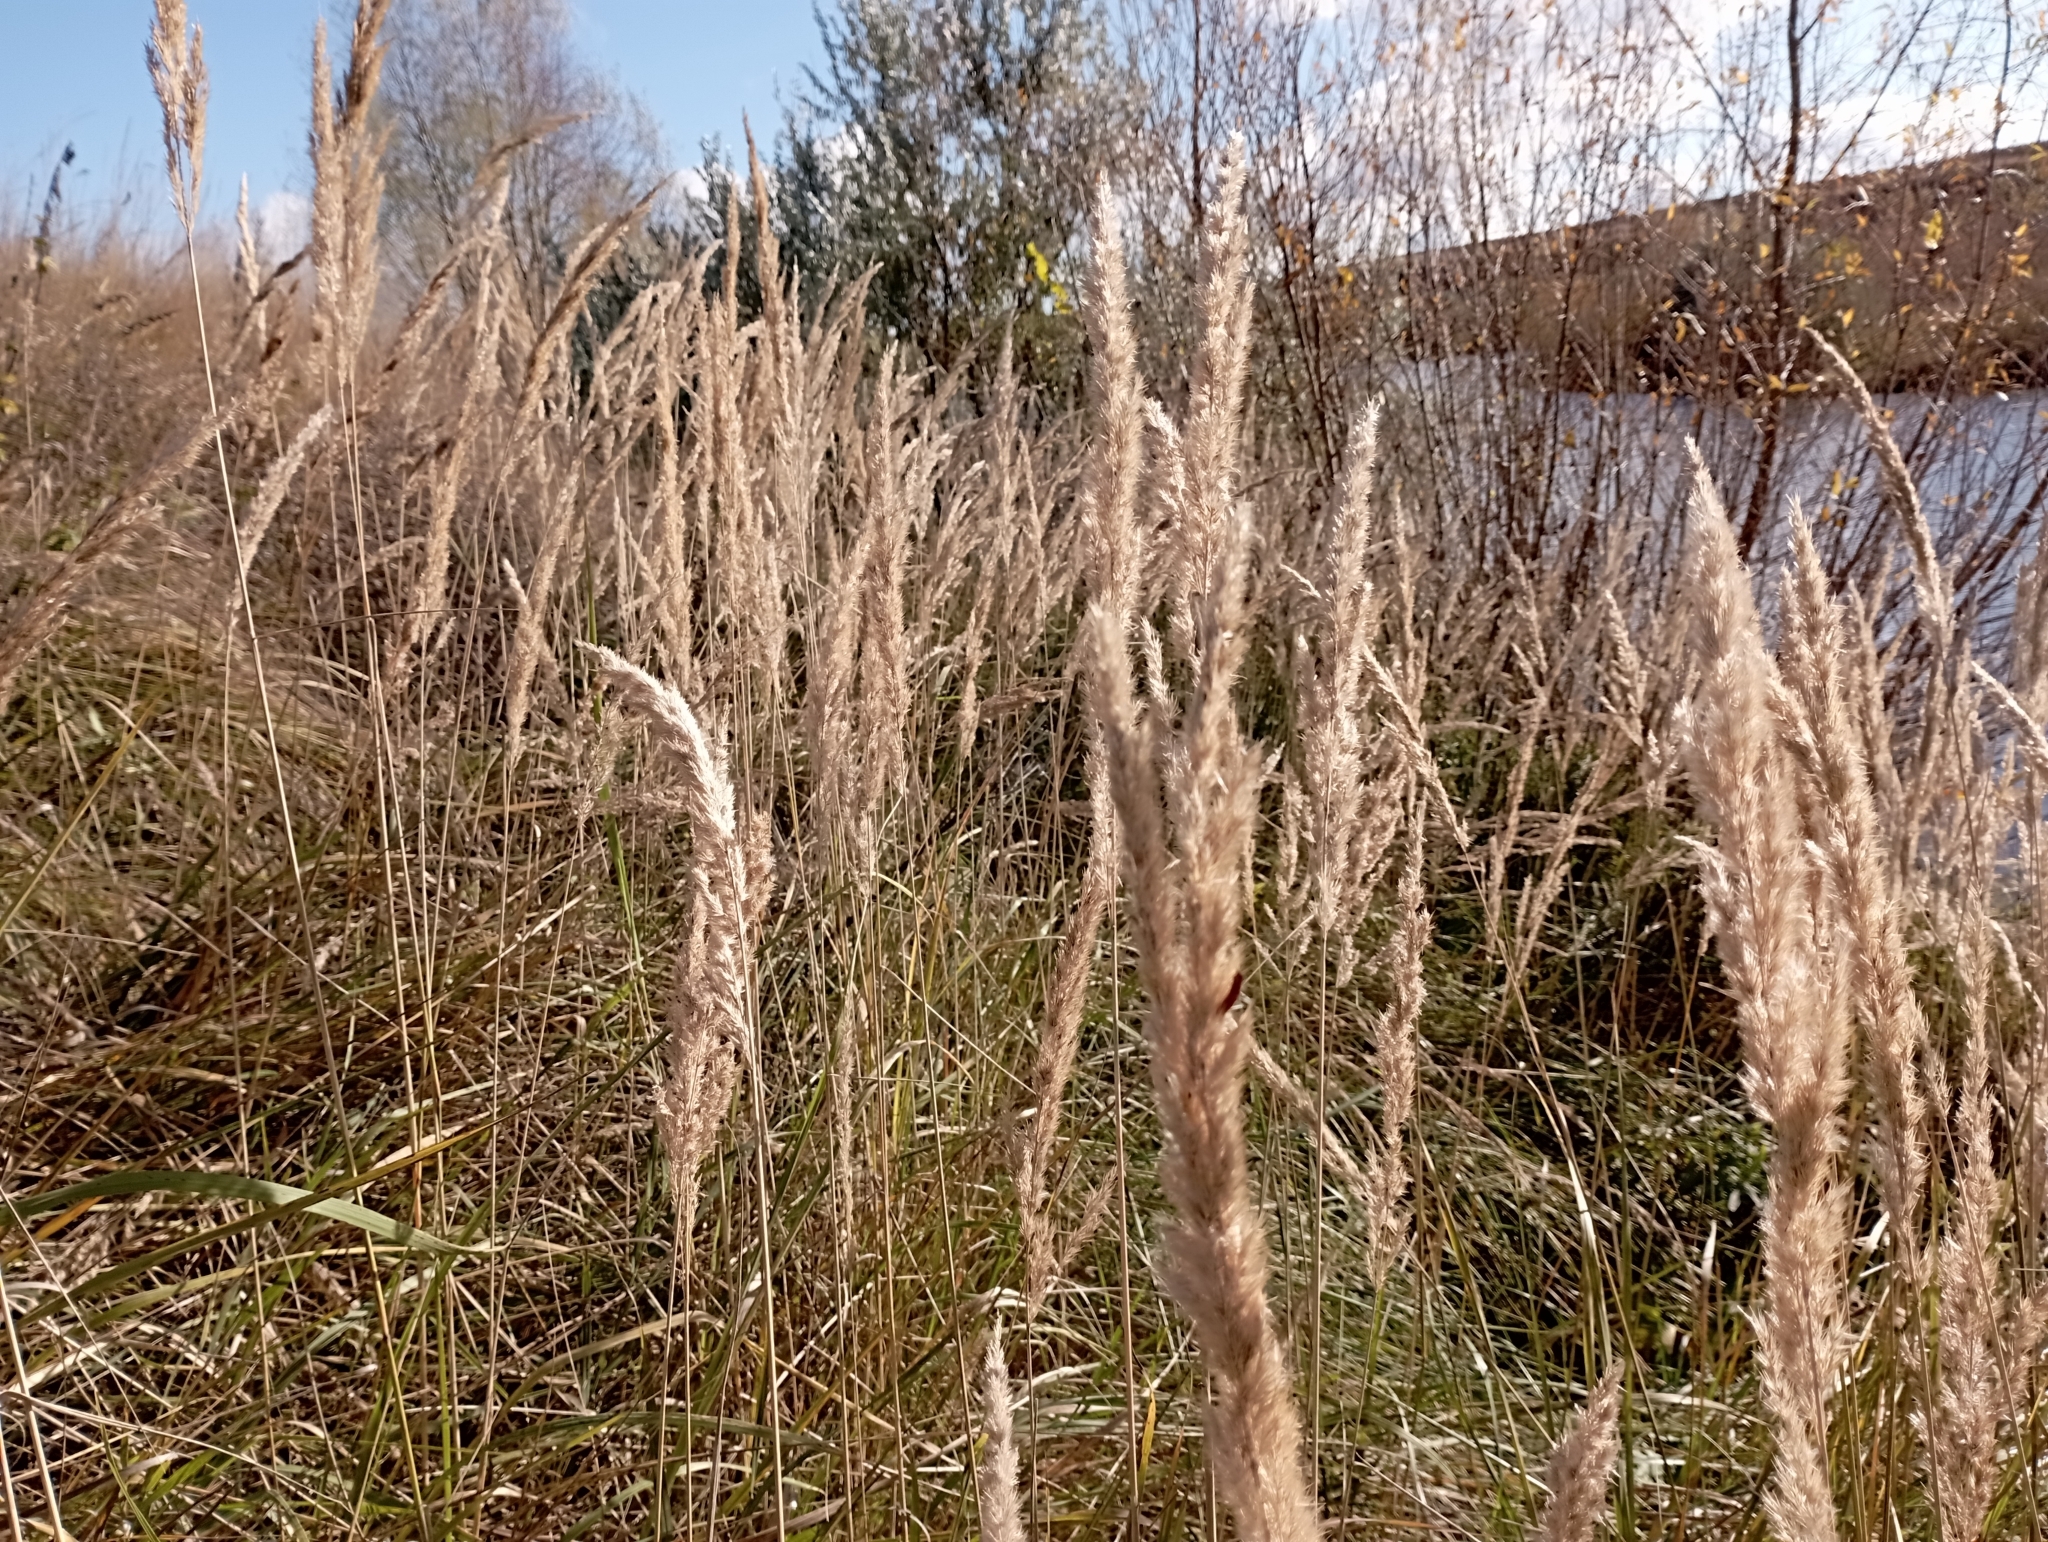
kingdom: Plantae
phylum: Tracheophyta
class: Liliopsida
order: Poales
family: Poaceae
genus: Calamagrostis
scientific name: Calamagrostis epigejos
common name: Wood small-reed
